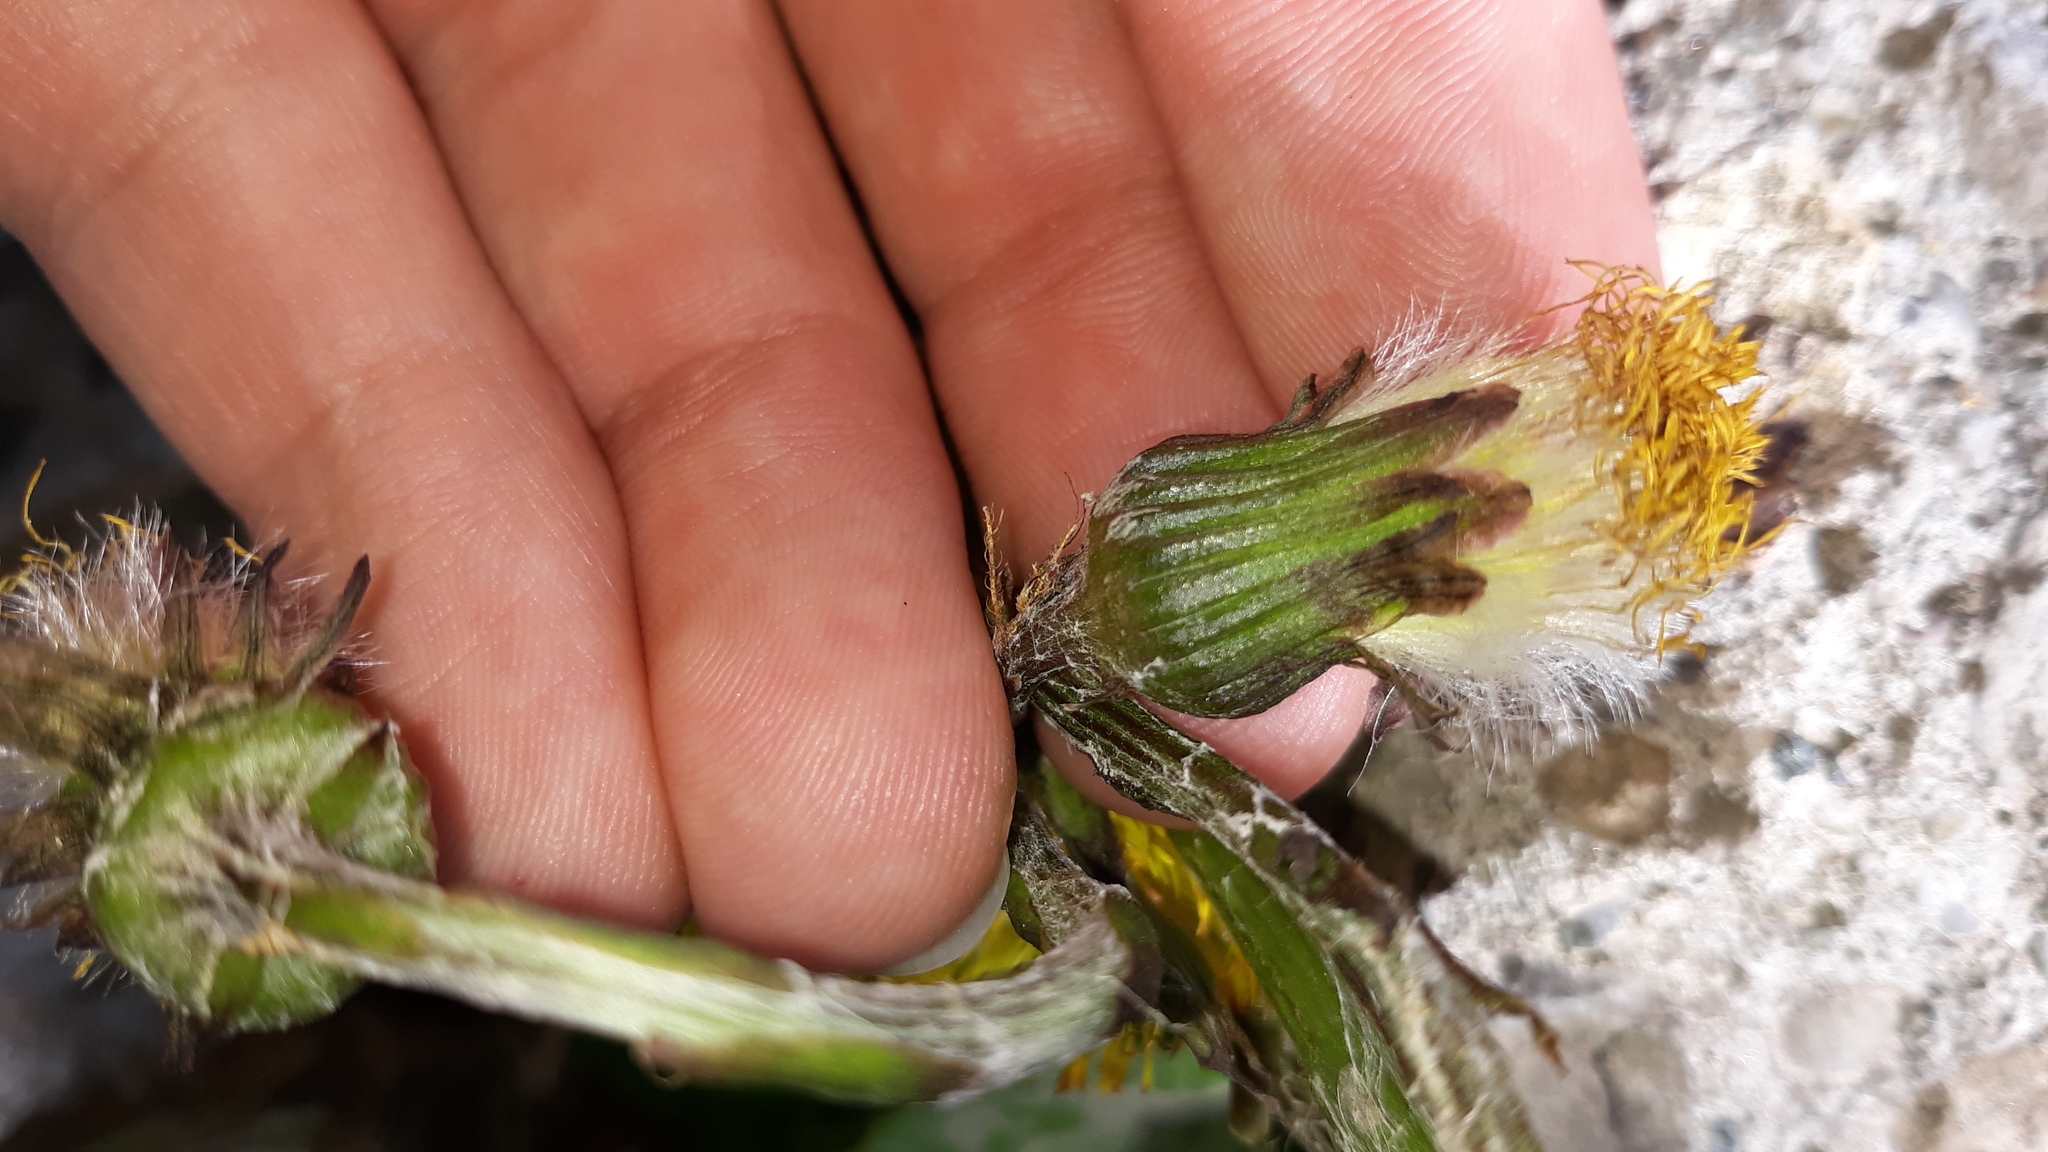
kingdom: Plantae
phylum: Tracheophyta
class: Magnoliopsida
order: Asterales
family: Asteraceae
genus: Tussilago
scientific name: Tussilago farfara
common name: Coltsfoot
